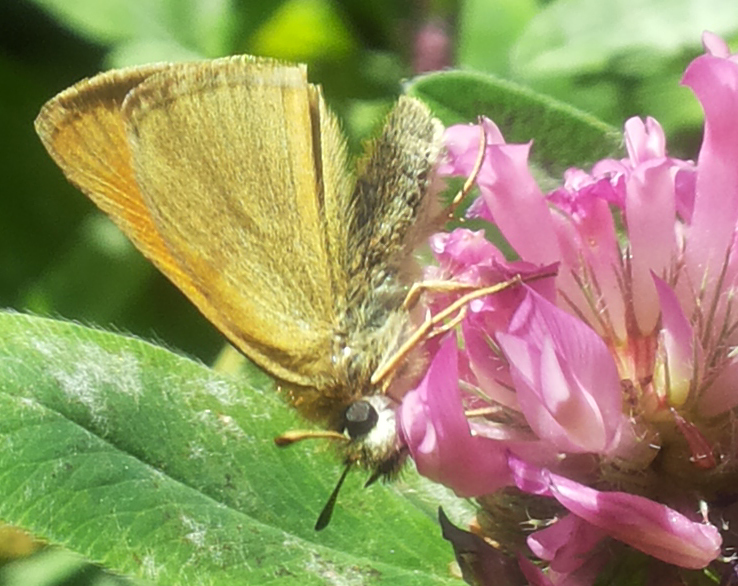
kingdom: Animalia
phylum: Arthropoda
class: Insecta
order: Lepidoptera
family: Hesperiidae
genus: Thymelicus
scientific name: Thymelicus lineola
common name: Essex skipper
